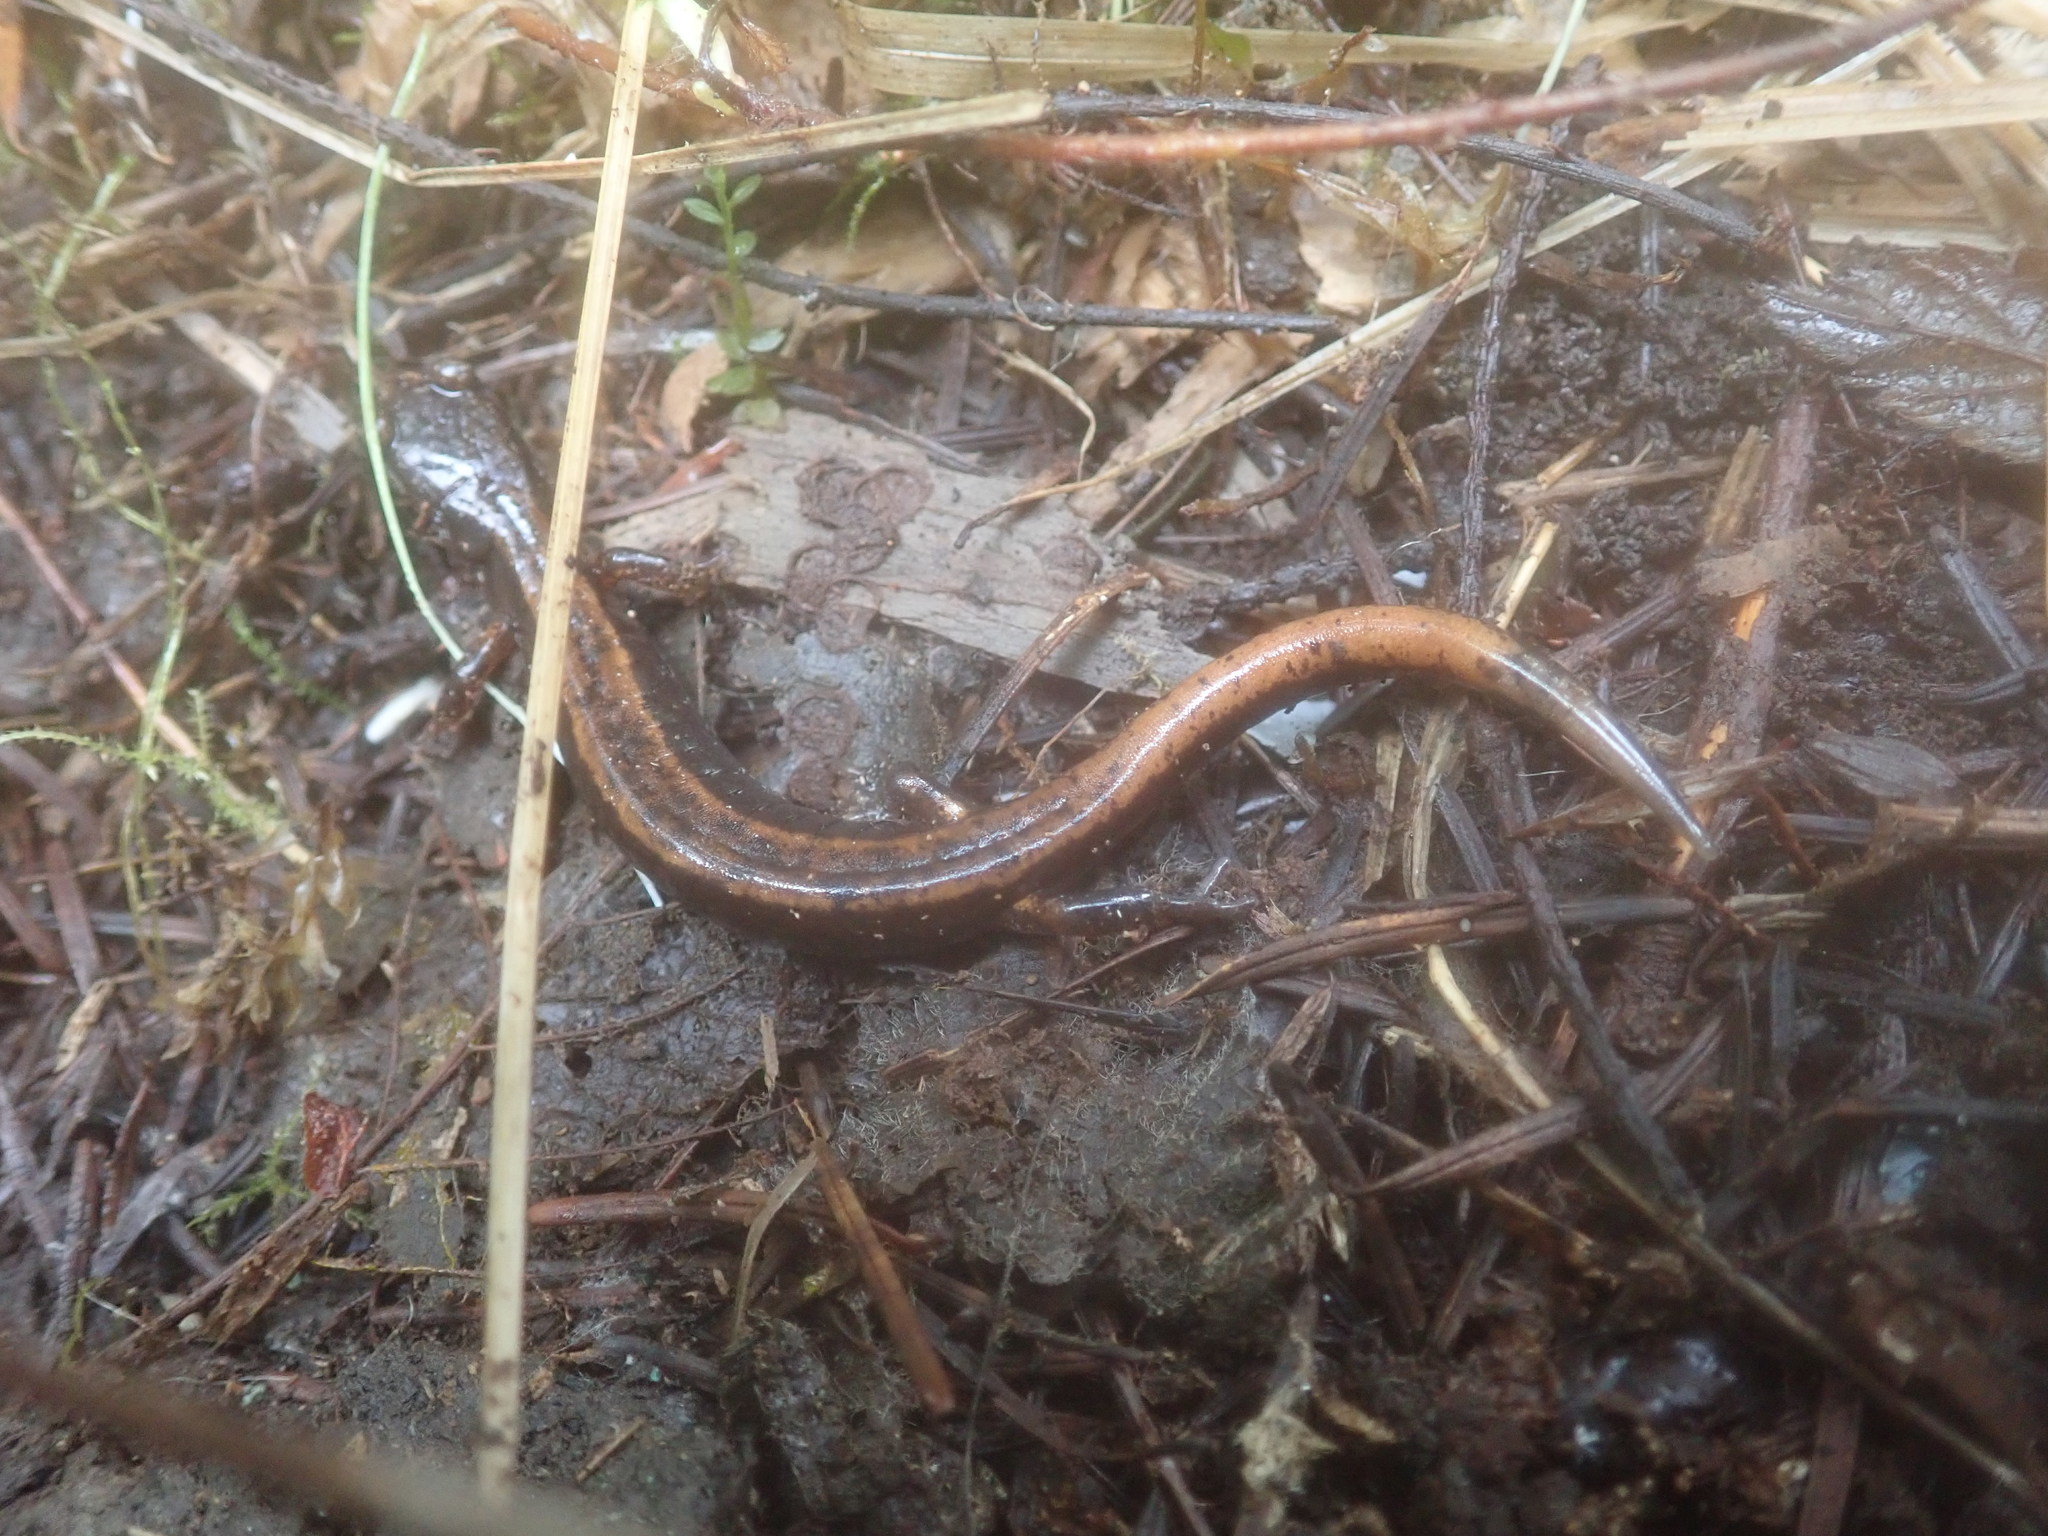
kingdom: Animalia
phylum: Chordata
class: Amphibia
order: Caudata
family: Plethodontidae
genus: Plethodon
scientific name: Plethodon vehiculum
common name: Western red-backed salamander
